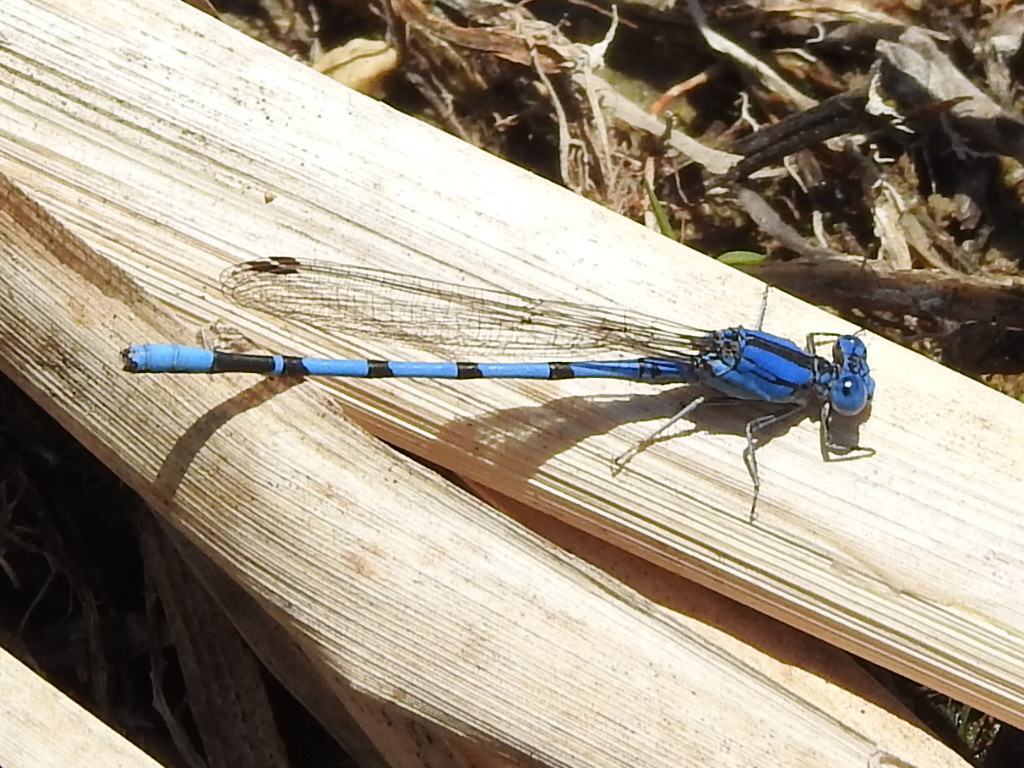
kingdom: Animalia
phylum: Arthropoda
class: Insecta
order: Odonata
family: Coenagrionidae
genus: Argia
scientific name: Argia nahuana
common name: Aztec dancer
